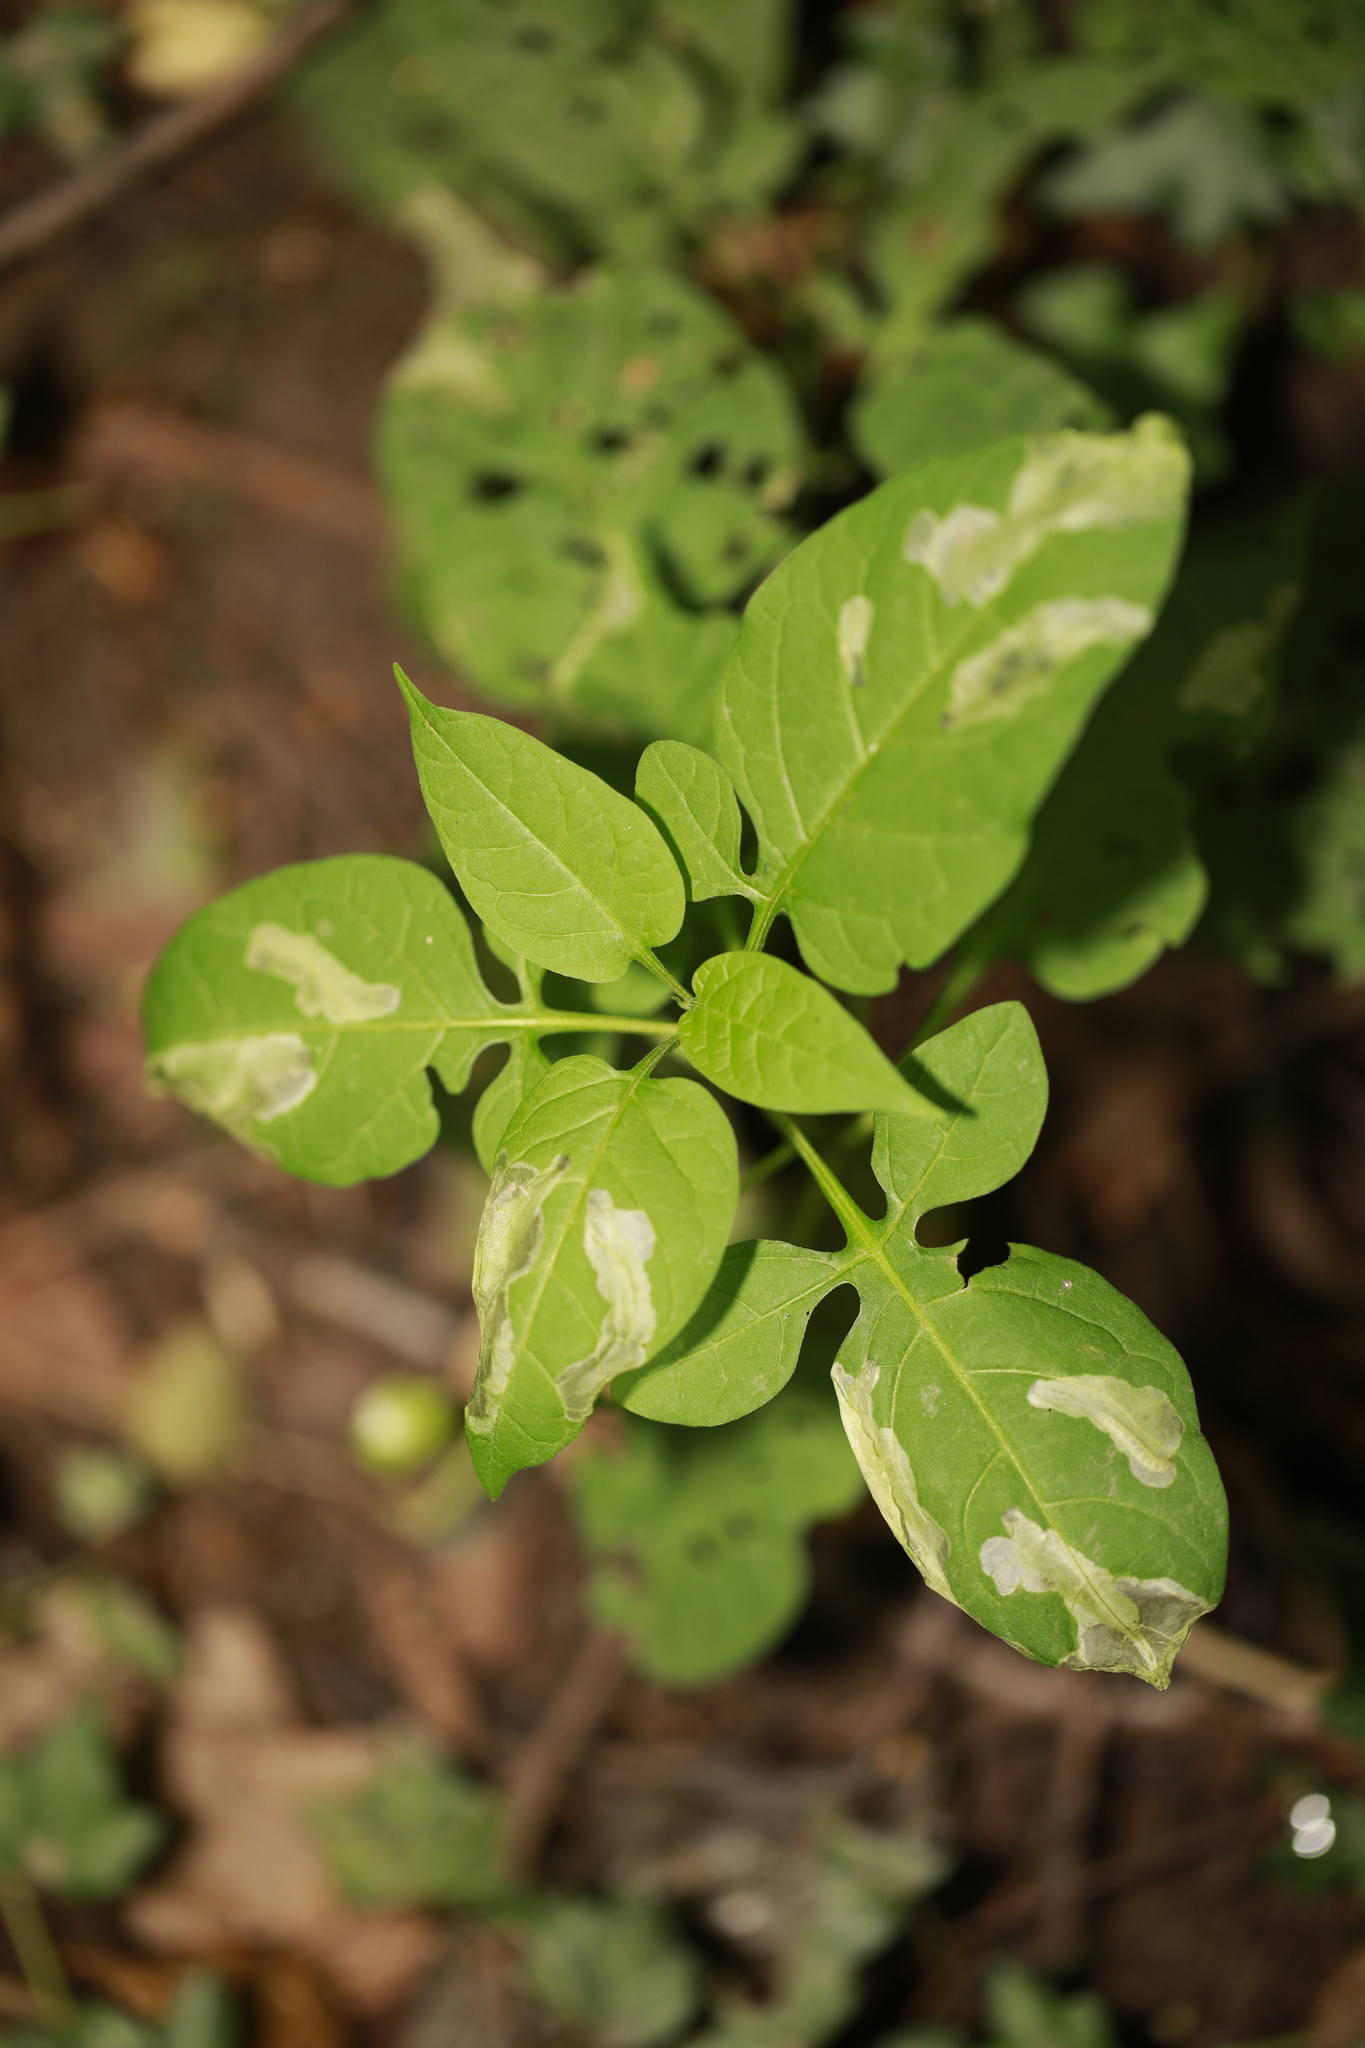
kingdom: Plantae
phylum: Tracheophyta
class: Magnoliopsida
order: Solanales
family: Solanaceae
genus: Solanum
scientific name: Solanum dulcamara
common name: Climbing nightshade
